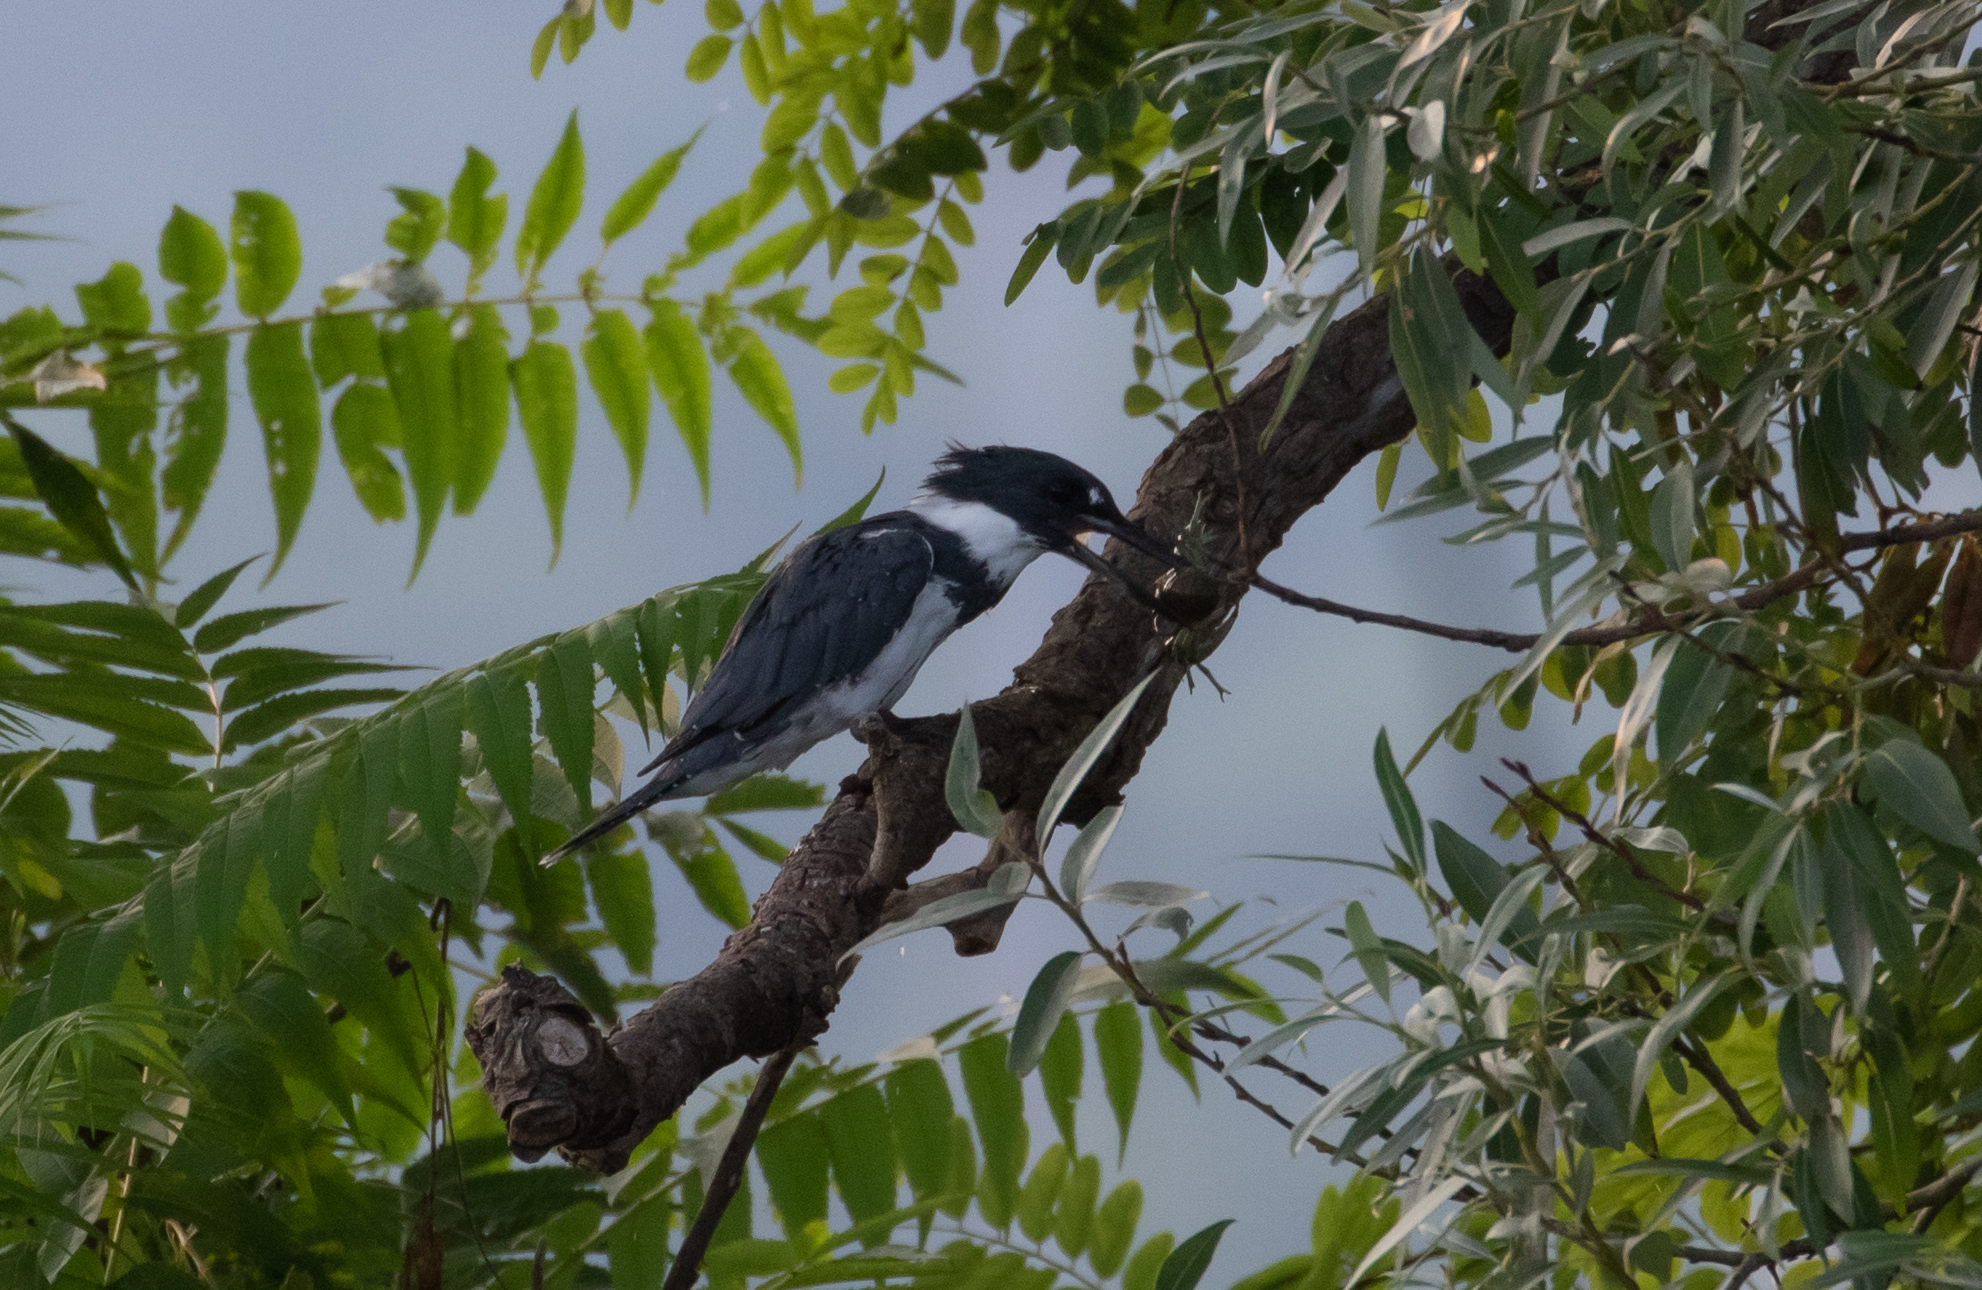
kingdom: Animalia
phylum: Chordata
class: Aves
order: Coraciiformes
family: Alcedinidae
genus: Megaceryle
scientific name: Megaceryle alcyon
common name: Belted kingfisher
